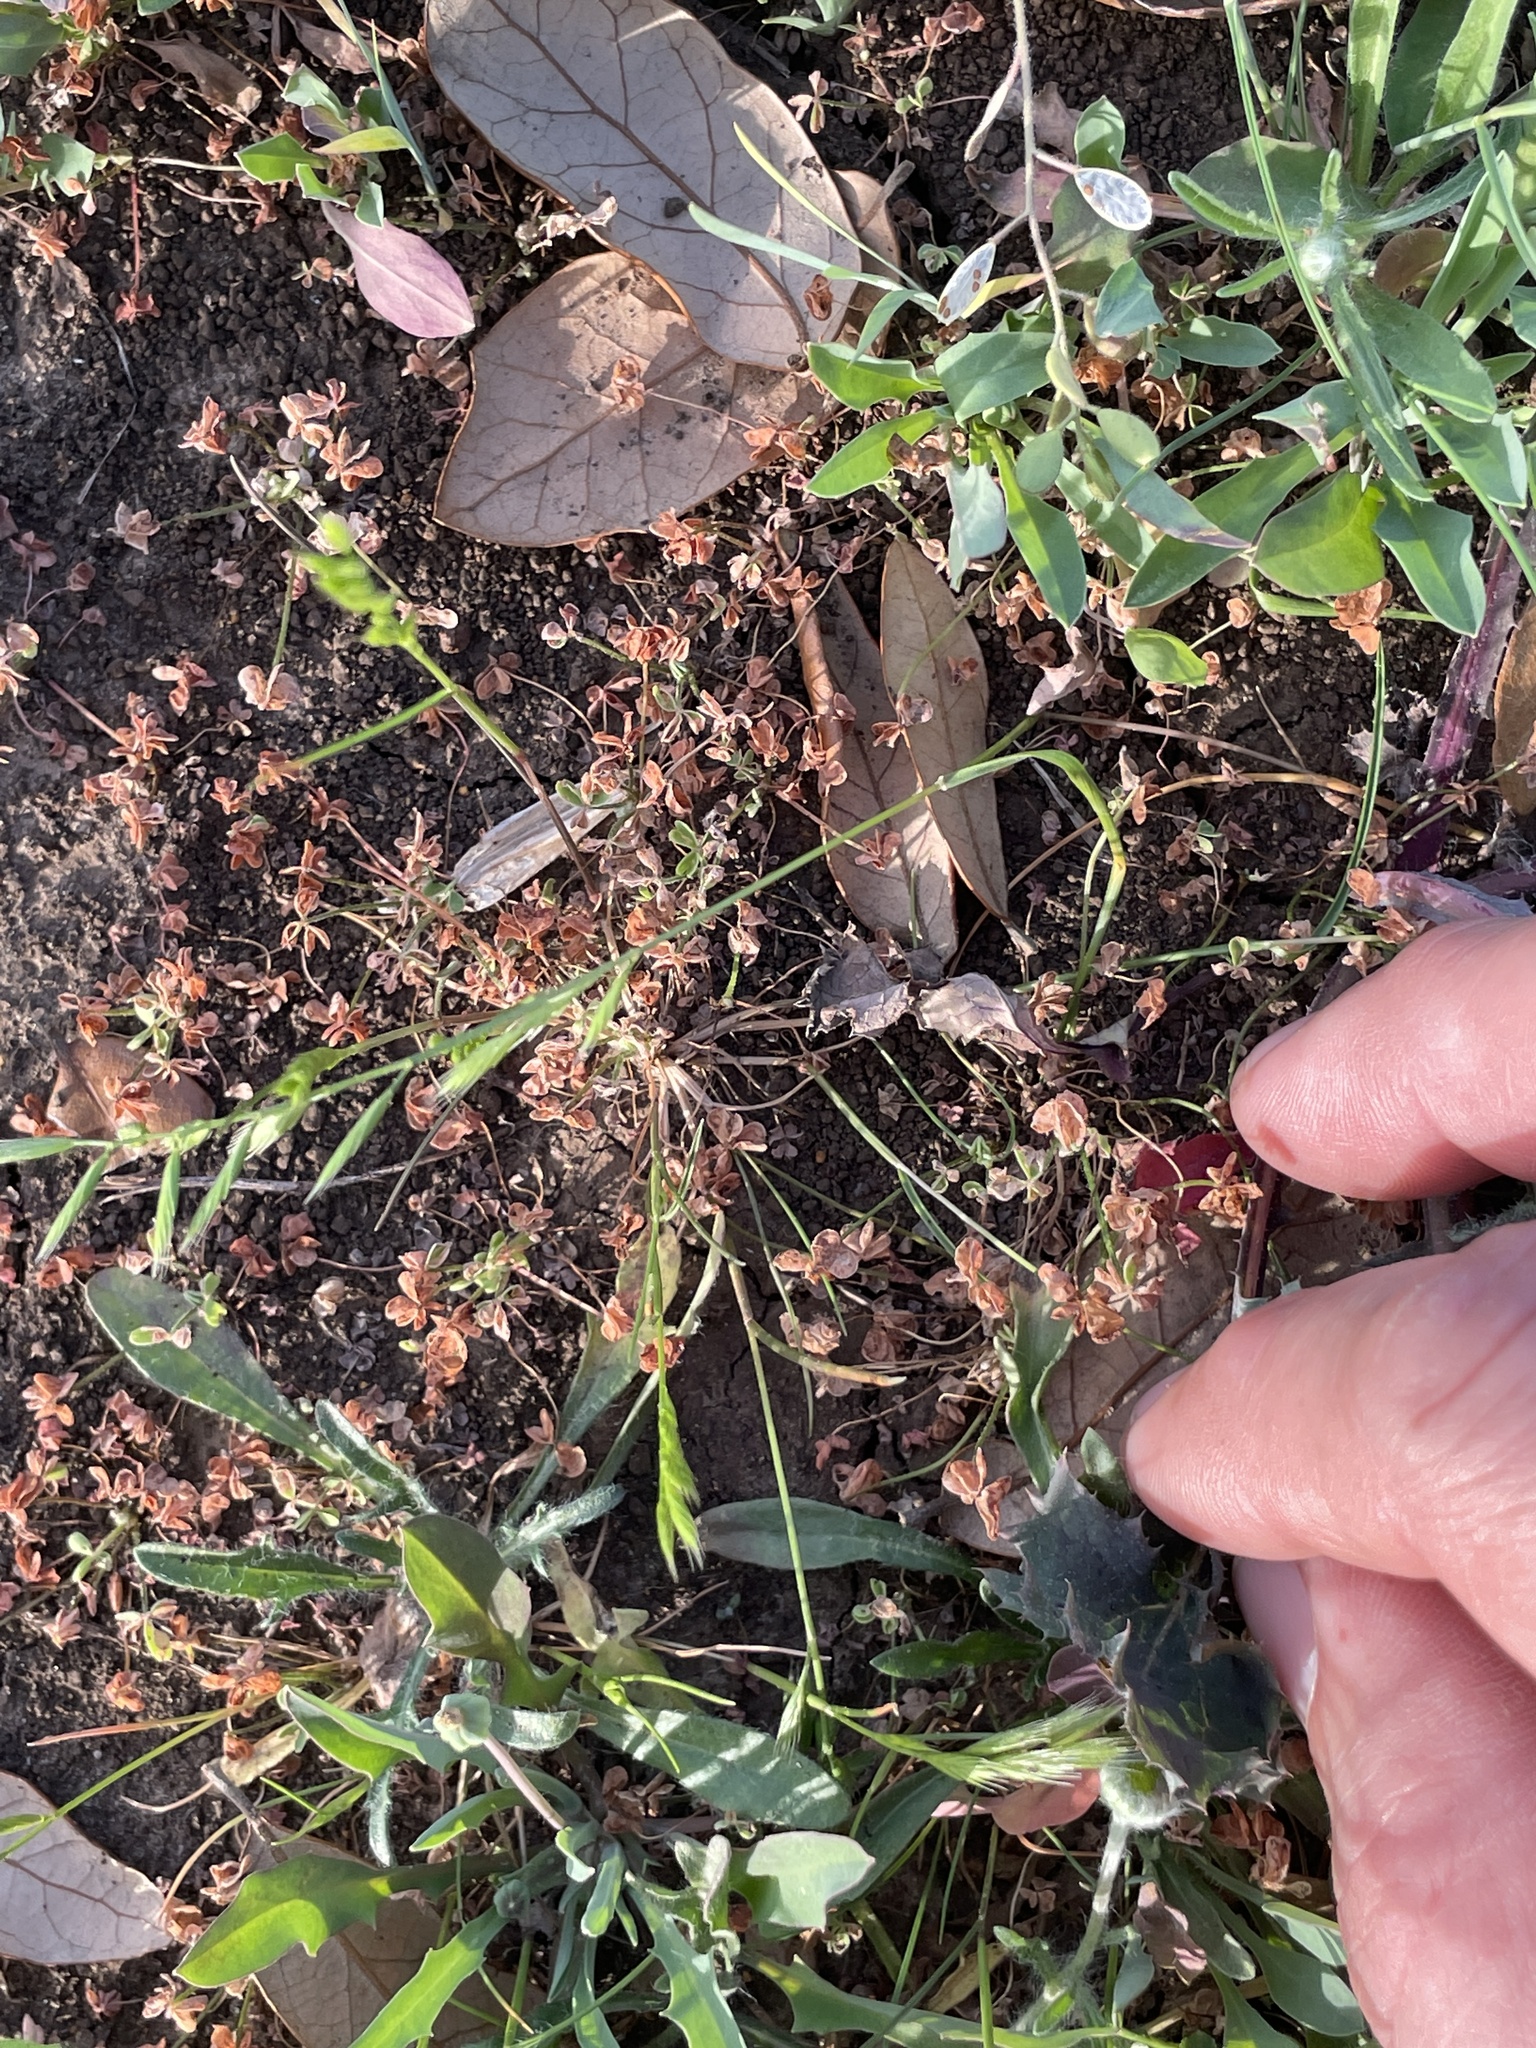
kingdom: Plantae
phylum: Tracheophyta
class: Liliopsida
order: Poales
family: Poaceae
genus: Festuca
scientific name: Festuca octoflora
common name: Sixweeks grass
